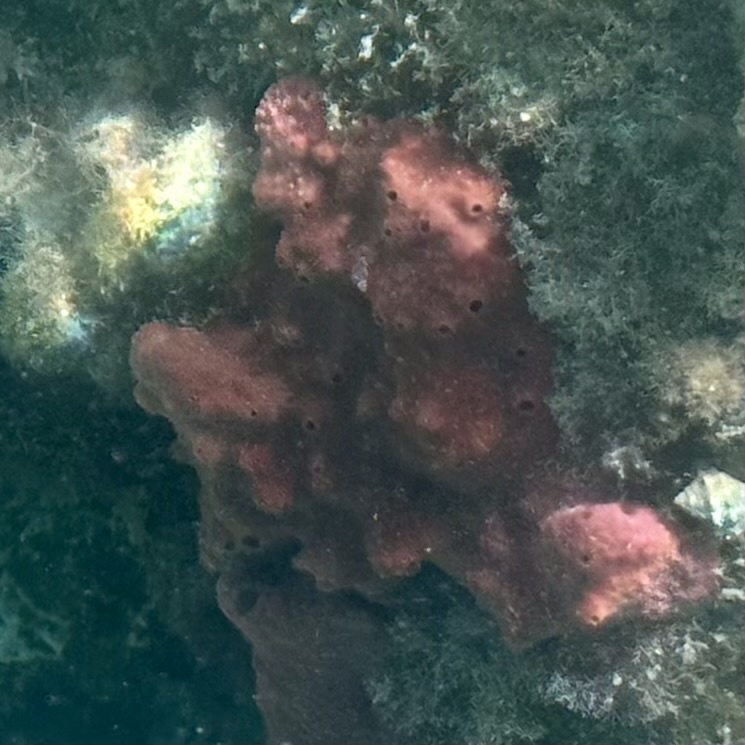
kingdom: Animalia
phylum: Porifera
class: Demospongiae
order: Haplosclerida
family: Niphatidae
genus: Amphimedon
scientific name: Amphimedon compressa
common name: Red sponge
